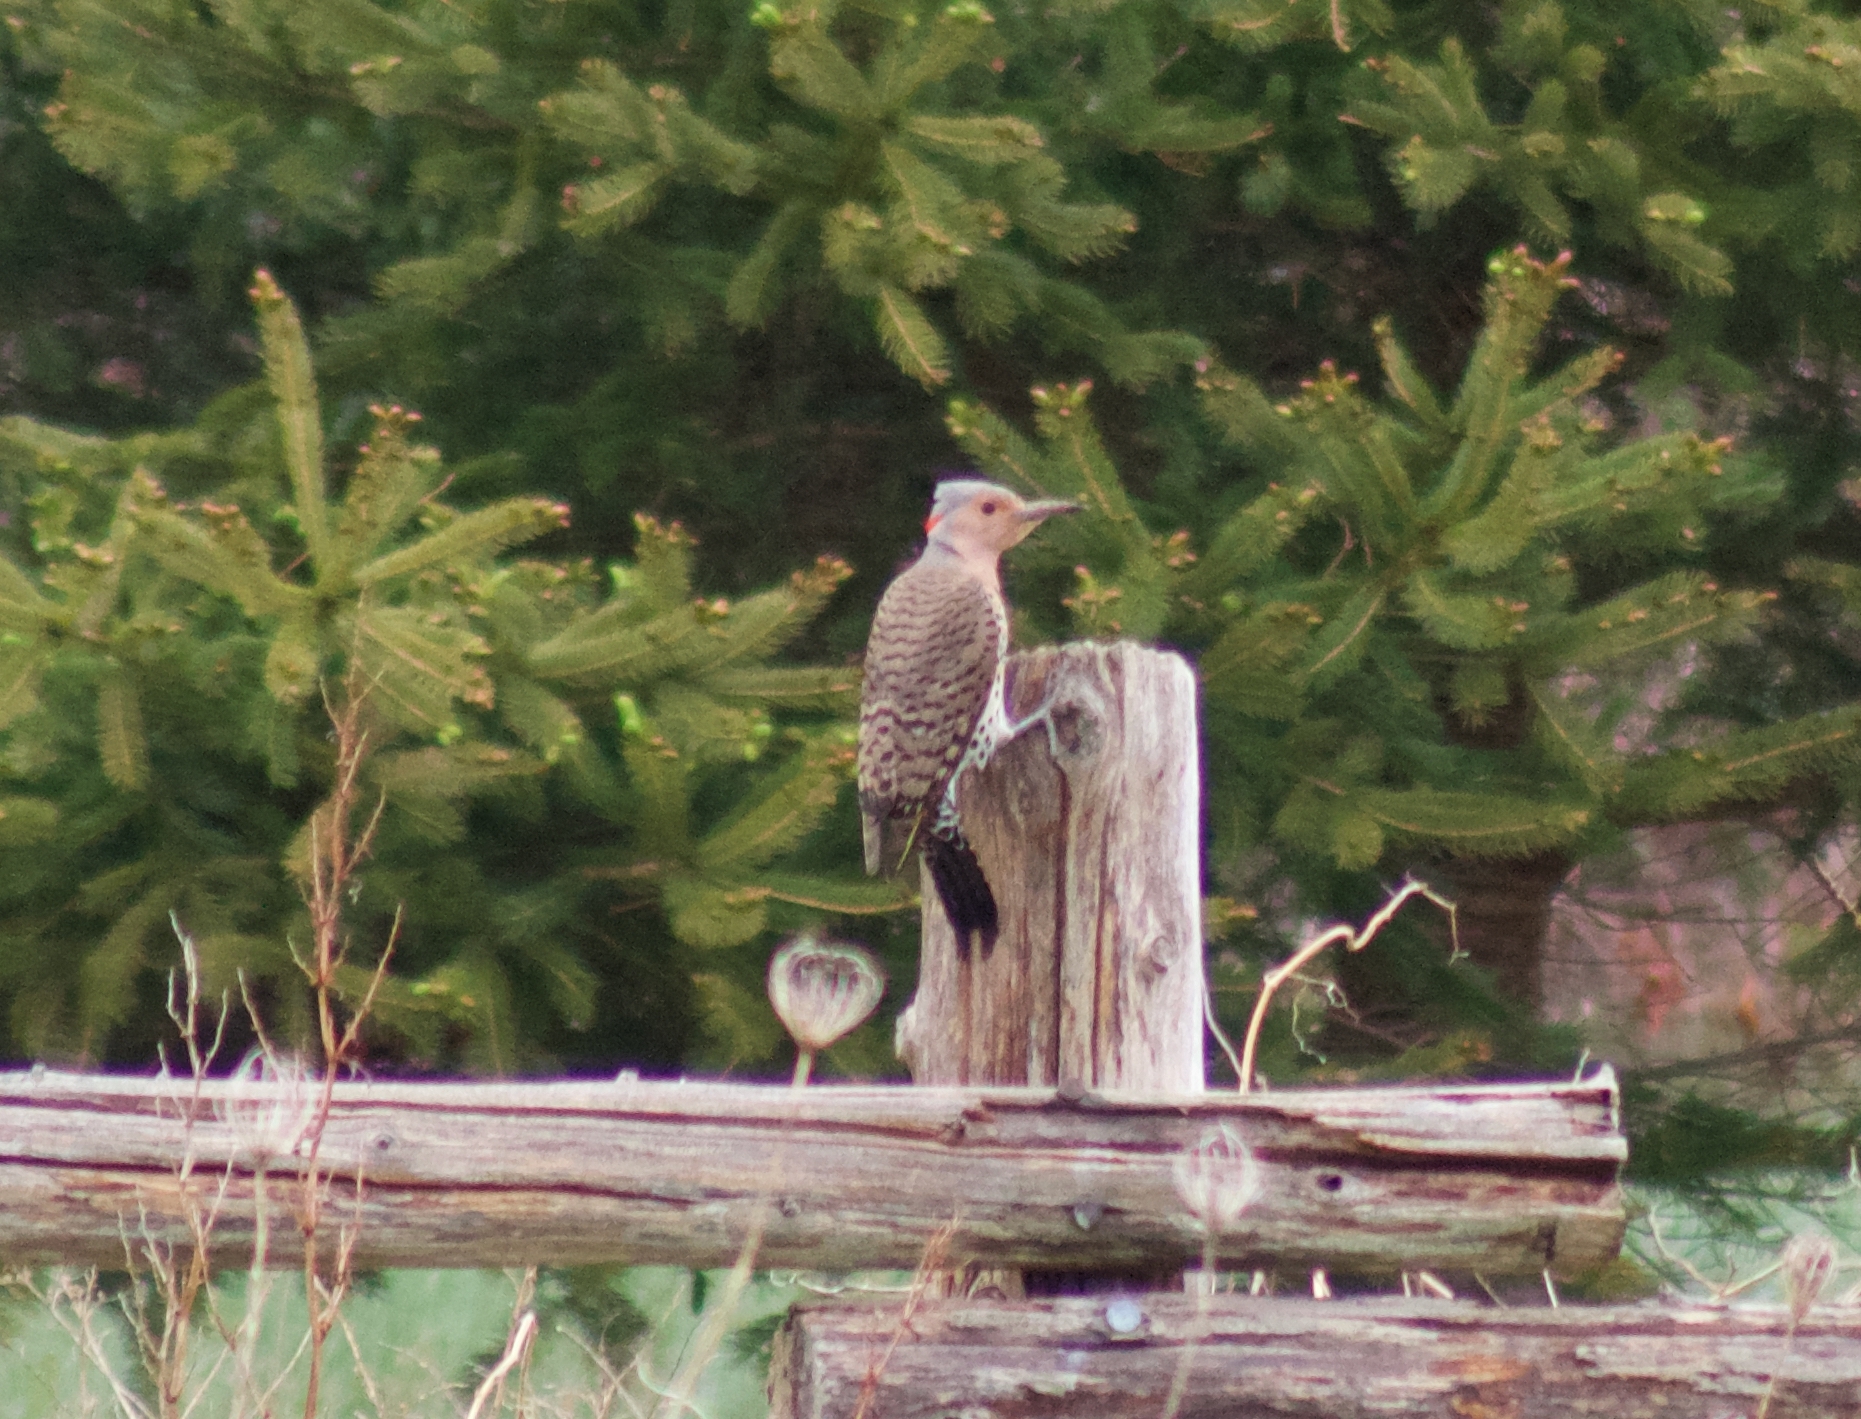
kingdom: Animalia
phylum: Chordata
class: Aves
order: Piciformes
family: Picidae
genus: Colaptes
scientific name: Colaptes auratus
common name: Northern flicker
